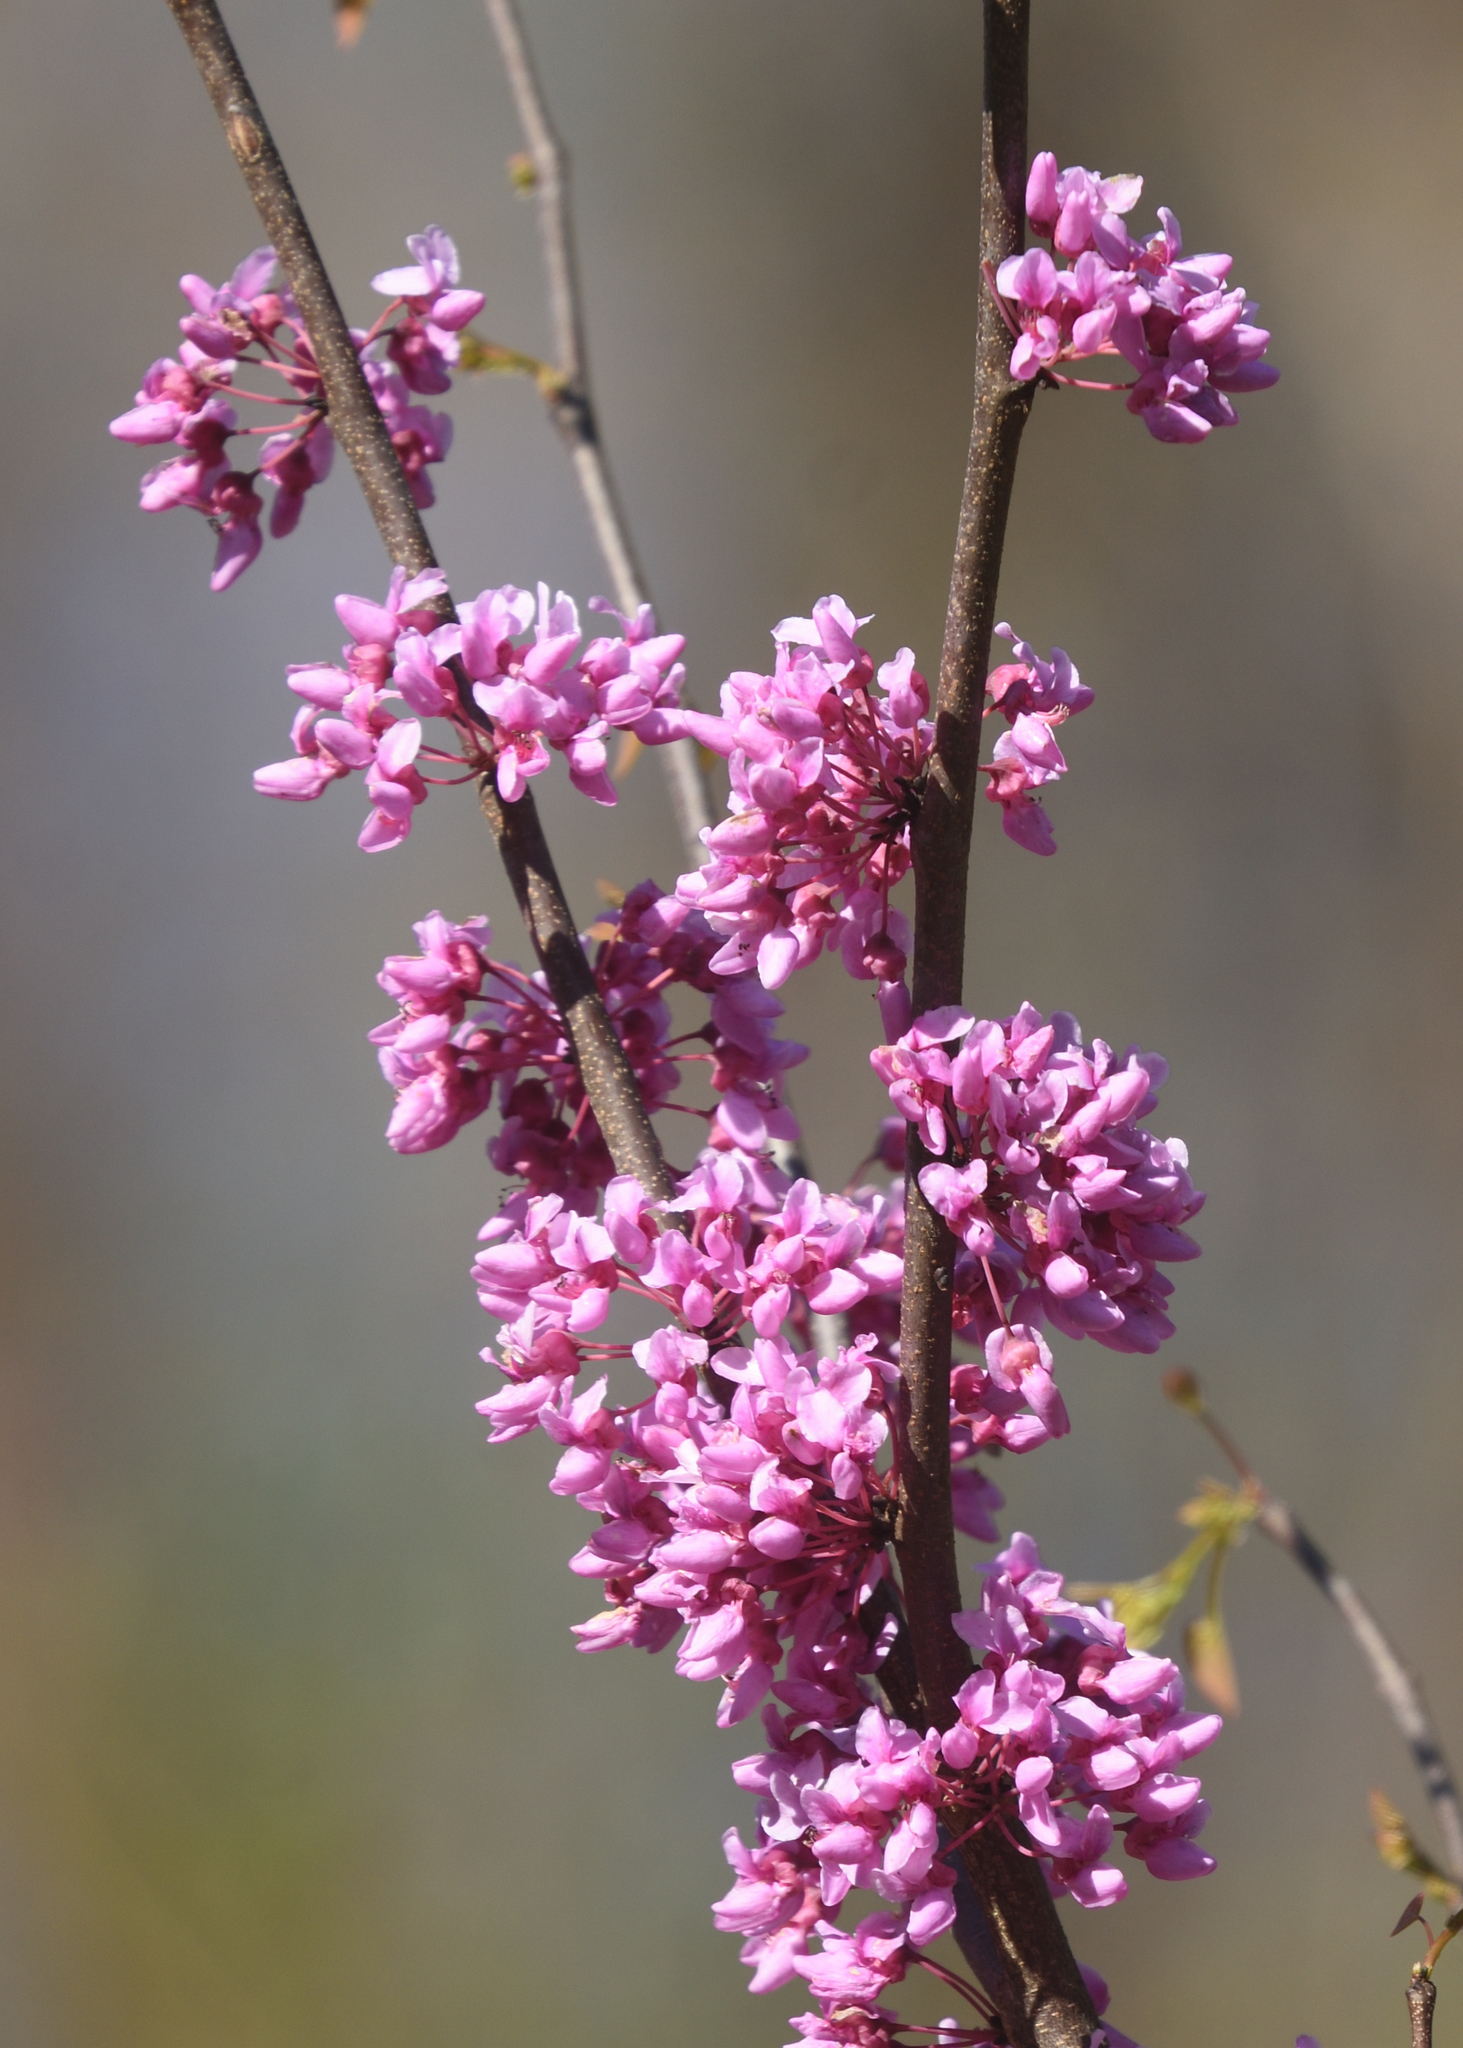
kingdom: Plantae
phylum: Tracheophyta
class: Magnoliopsida
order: Fabales
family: Fabaceae
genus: Cercis
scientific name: Cercis canadensis
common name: Eastern redbud
